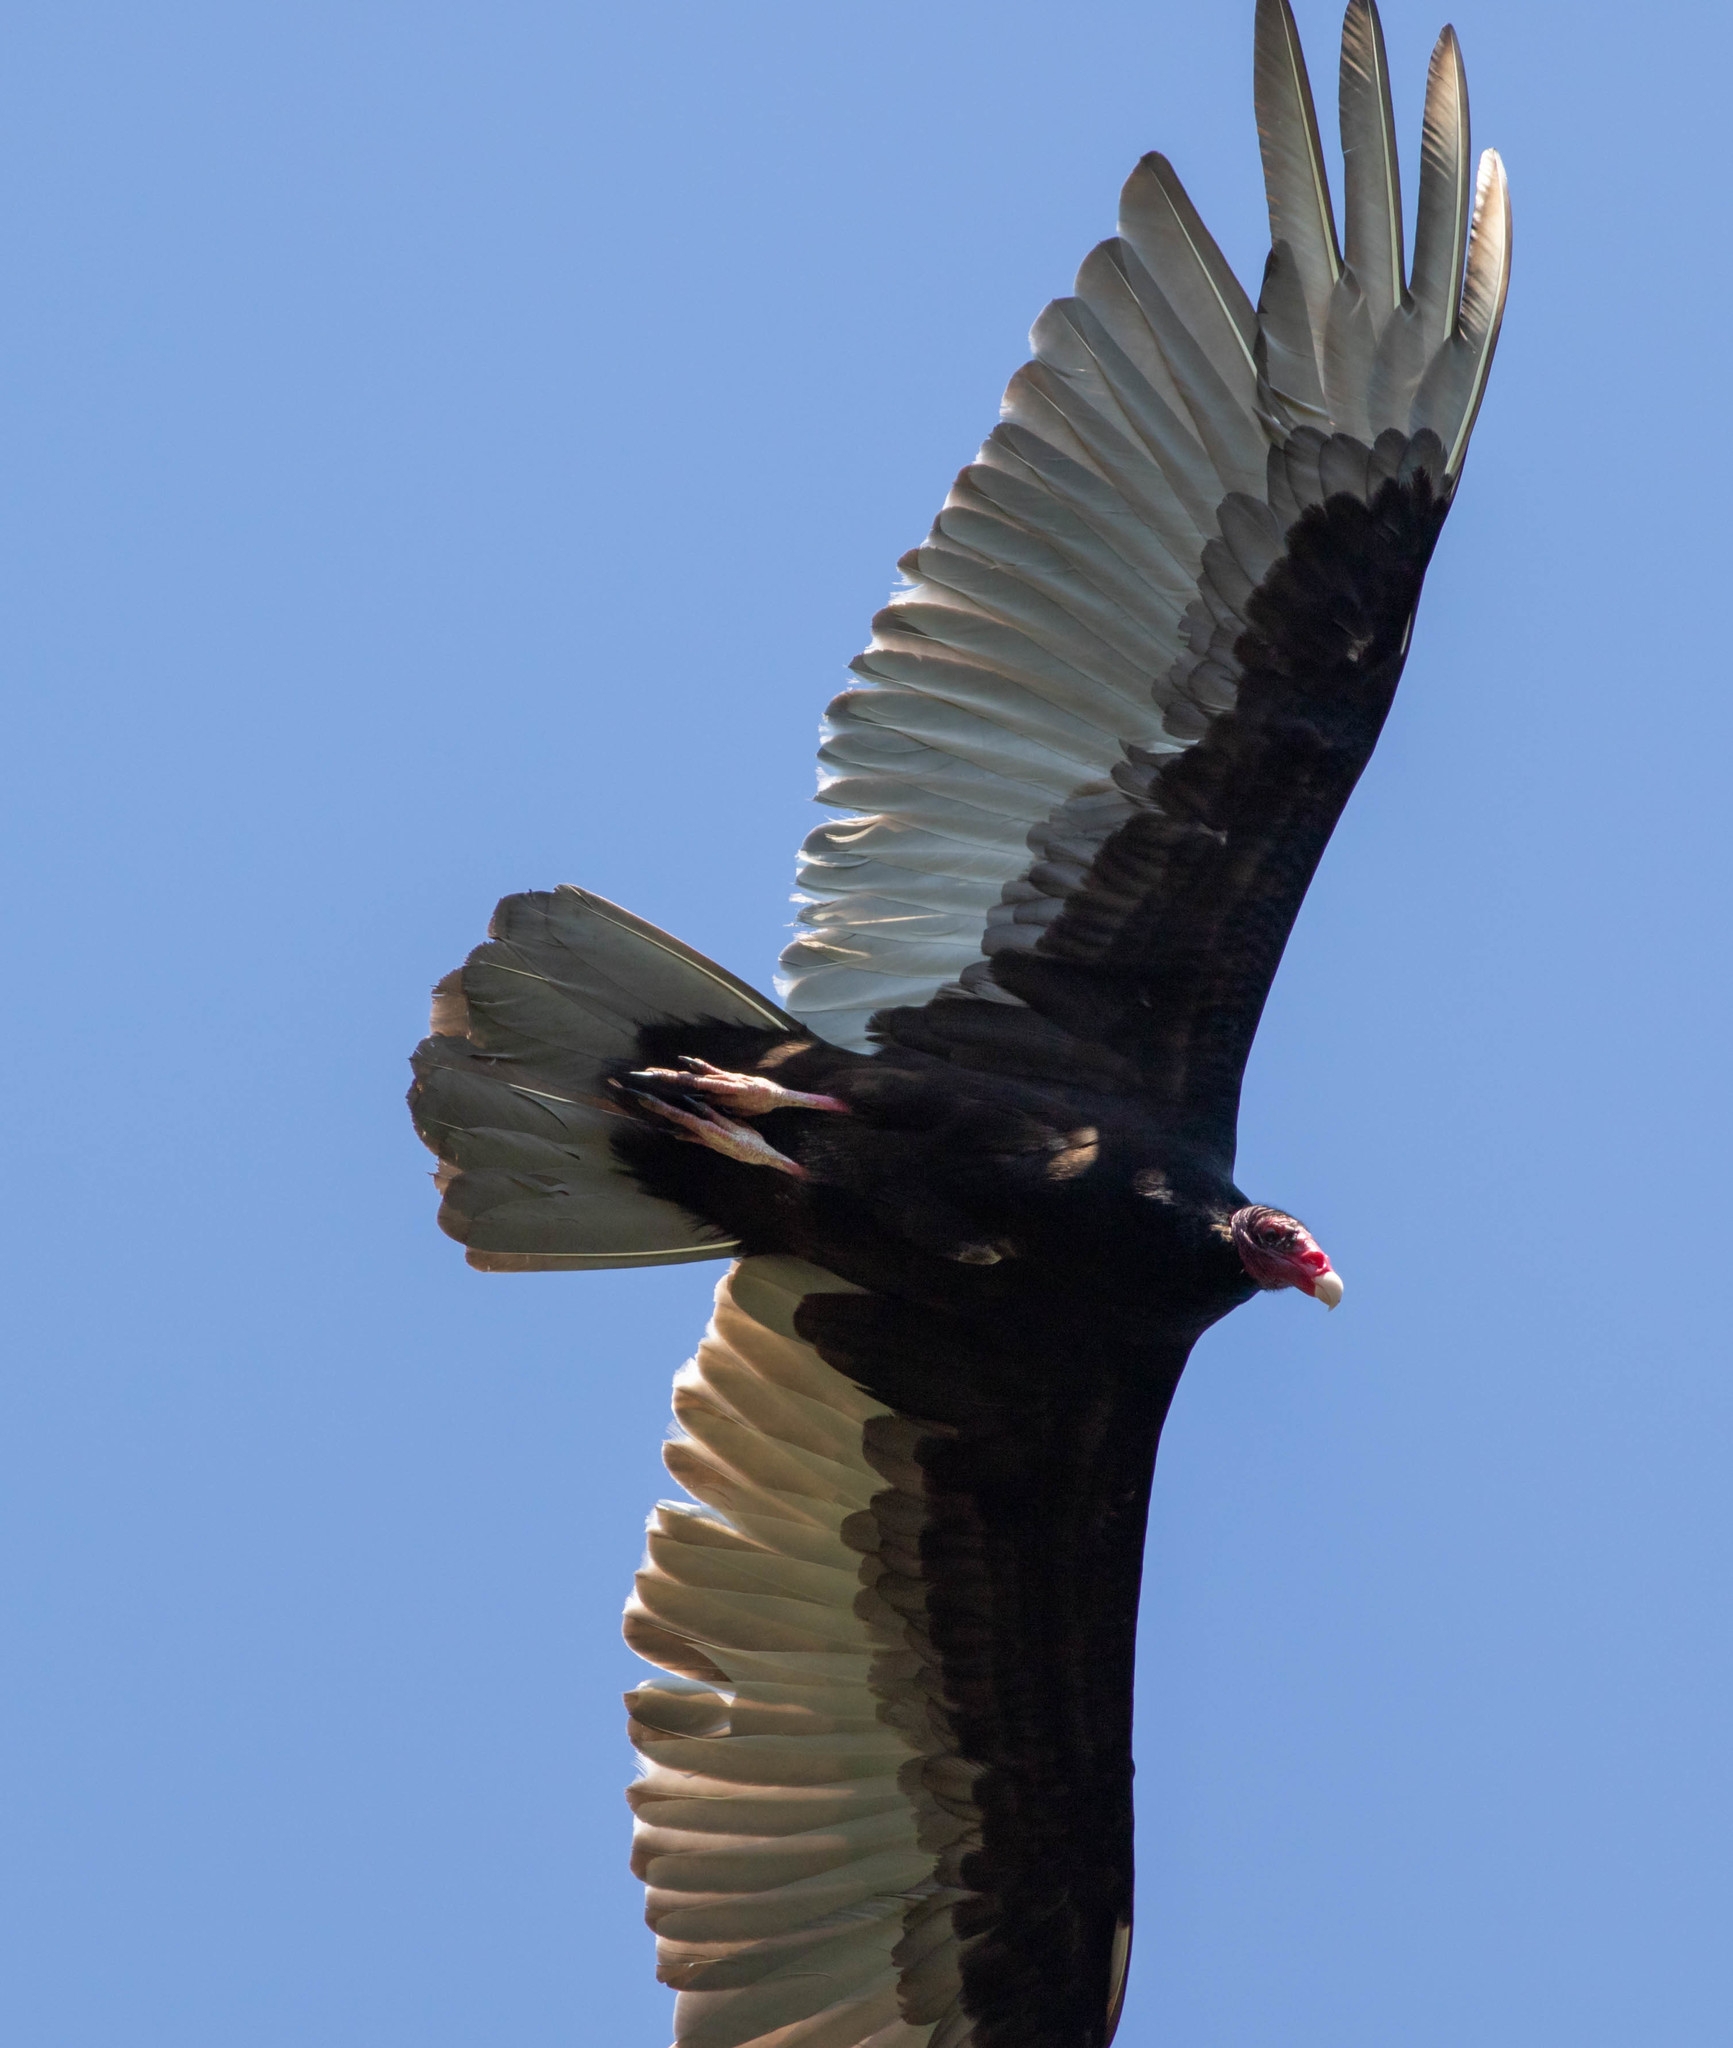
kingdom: Animalia
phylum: Chordata
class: Aves
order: Accipitriformes
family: Cathartidae
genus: Cathartes
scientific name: Cathartes aura
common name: Turkey vulture
